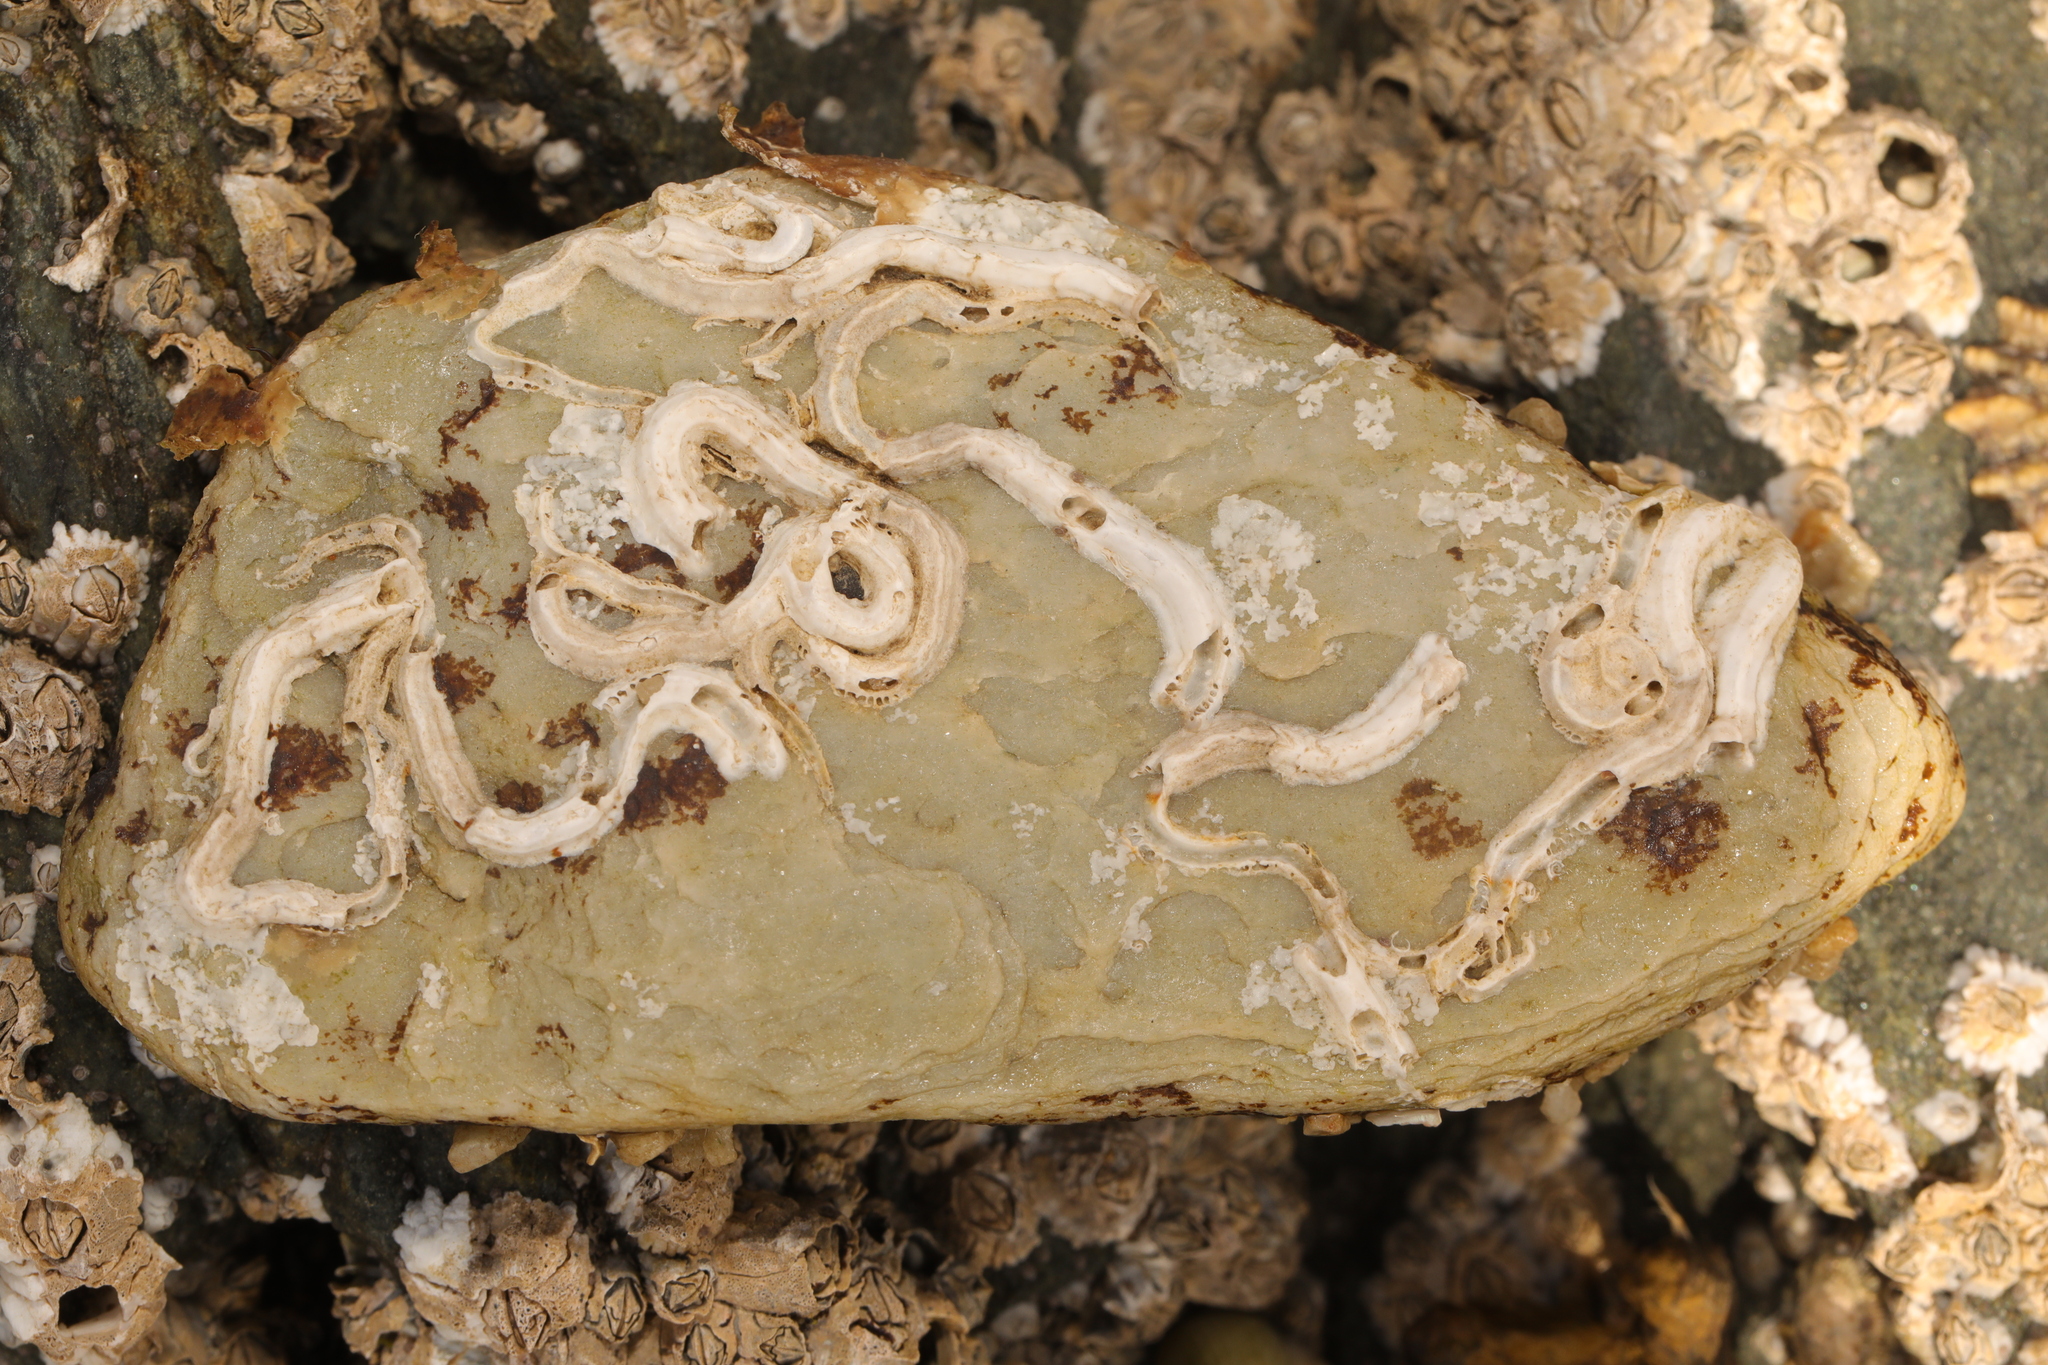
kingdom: Animalia
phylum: Annelida
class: Polychaeta
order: Sabellida
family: Serpulidae
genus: Spirobranchus
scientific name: Spirobranchus lamarcki
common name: Keelworm
